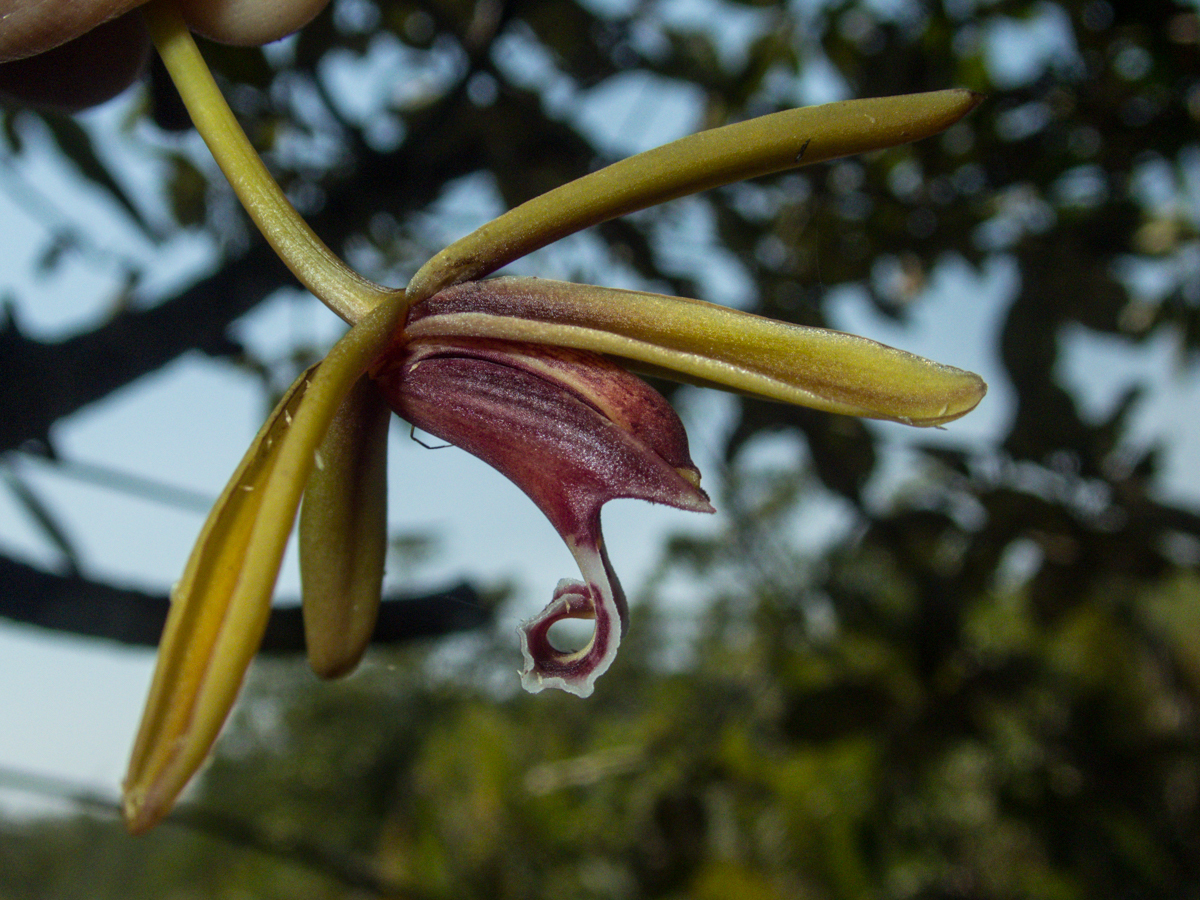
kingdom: Plantae
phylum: Tracheophyta
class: Liliopsida
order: Asparagales
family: Orchidaceae
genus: Cymbidium
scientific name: Cymbidium finlaysonianum
